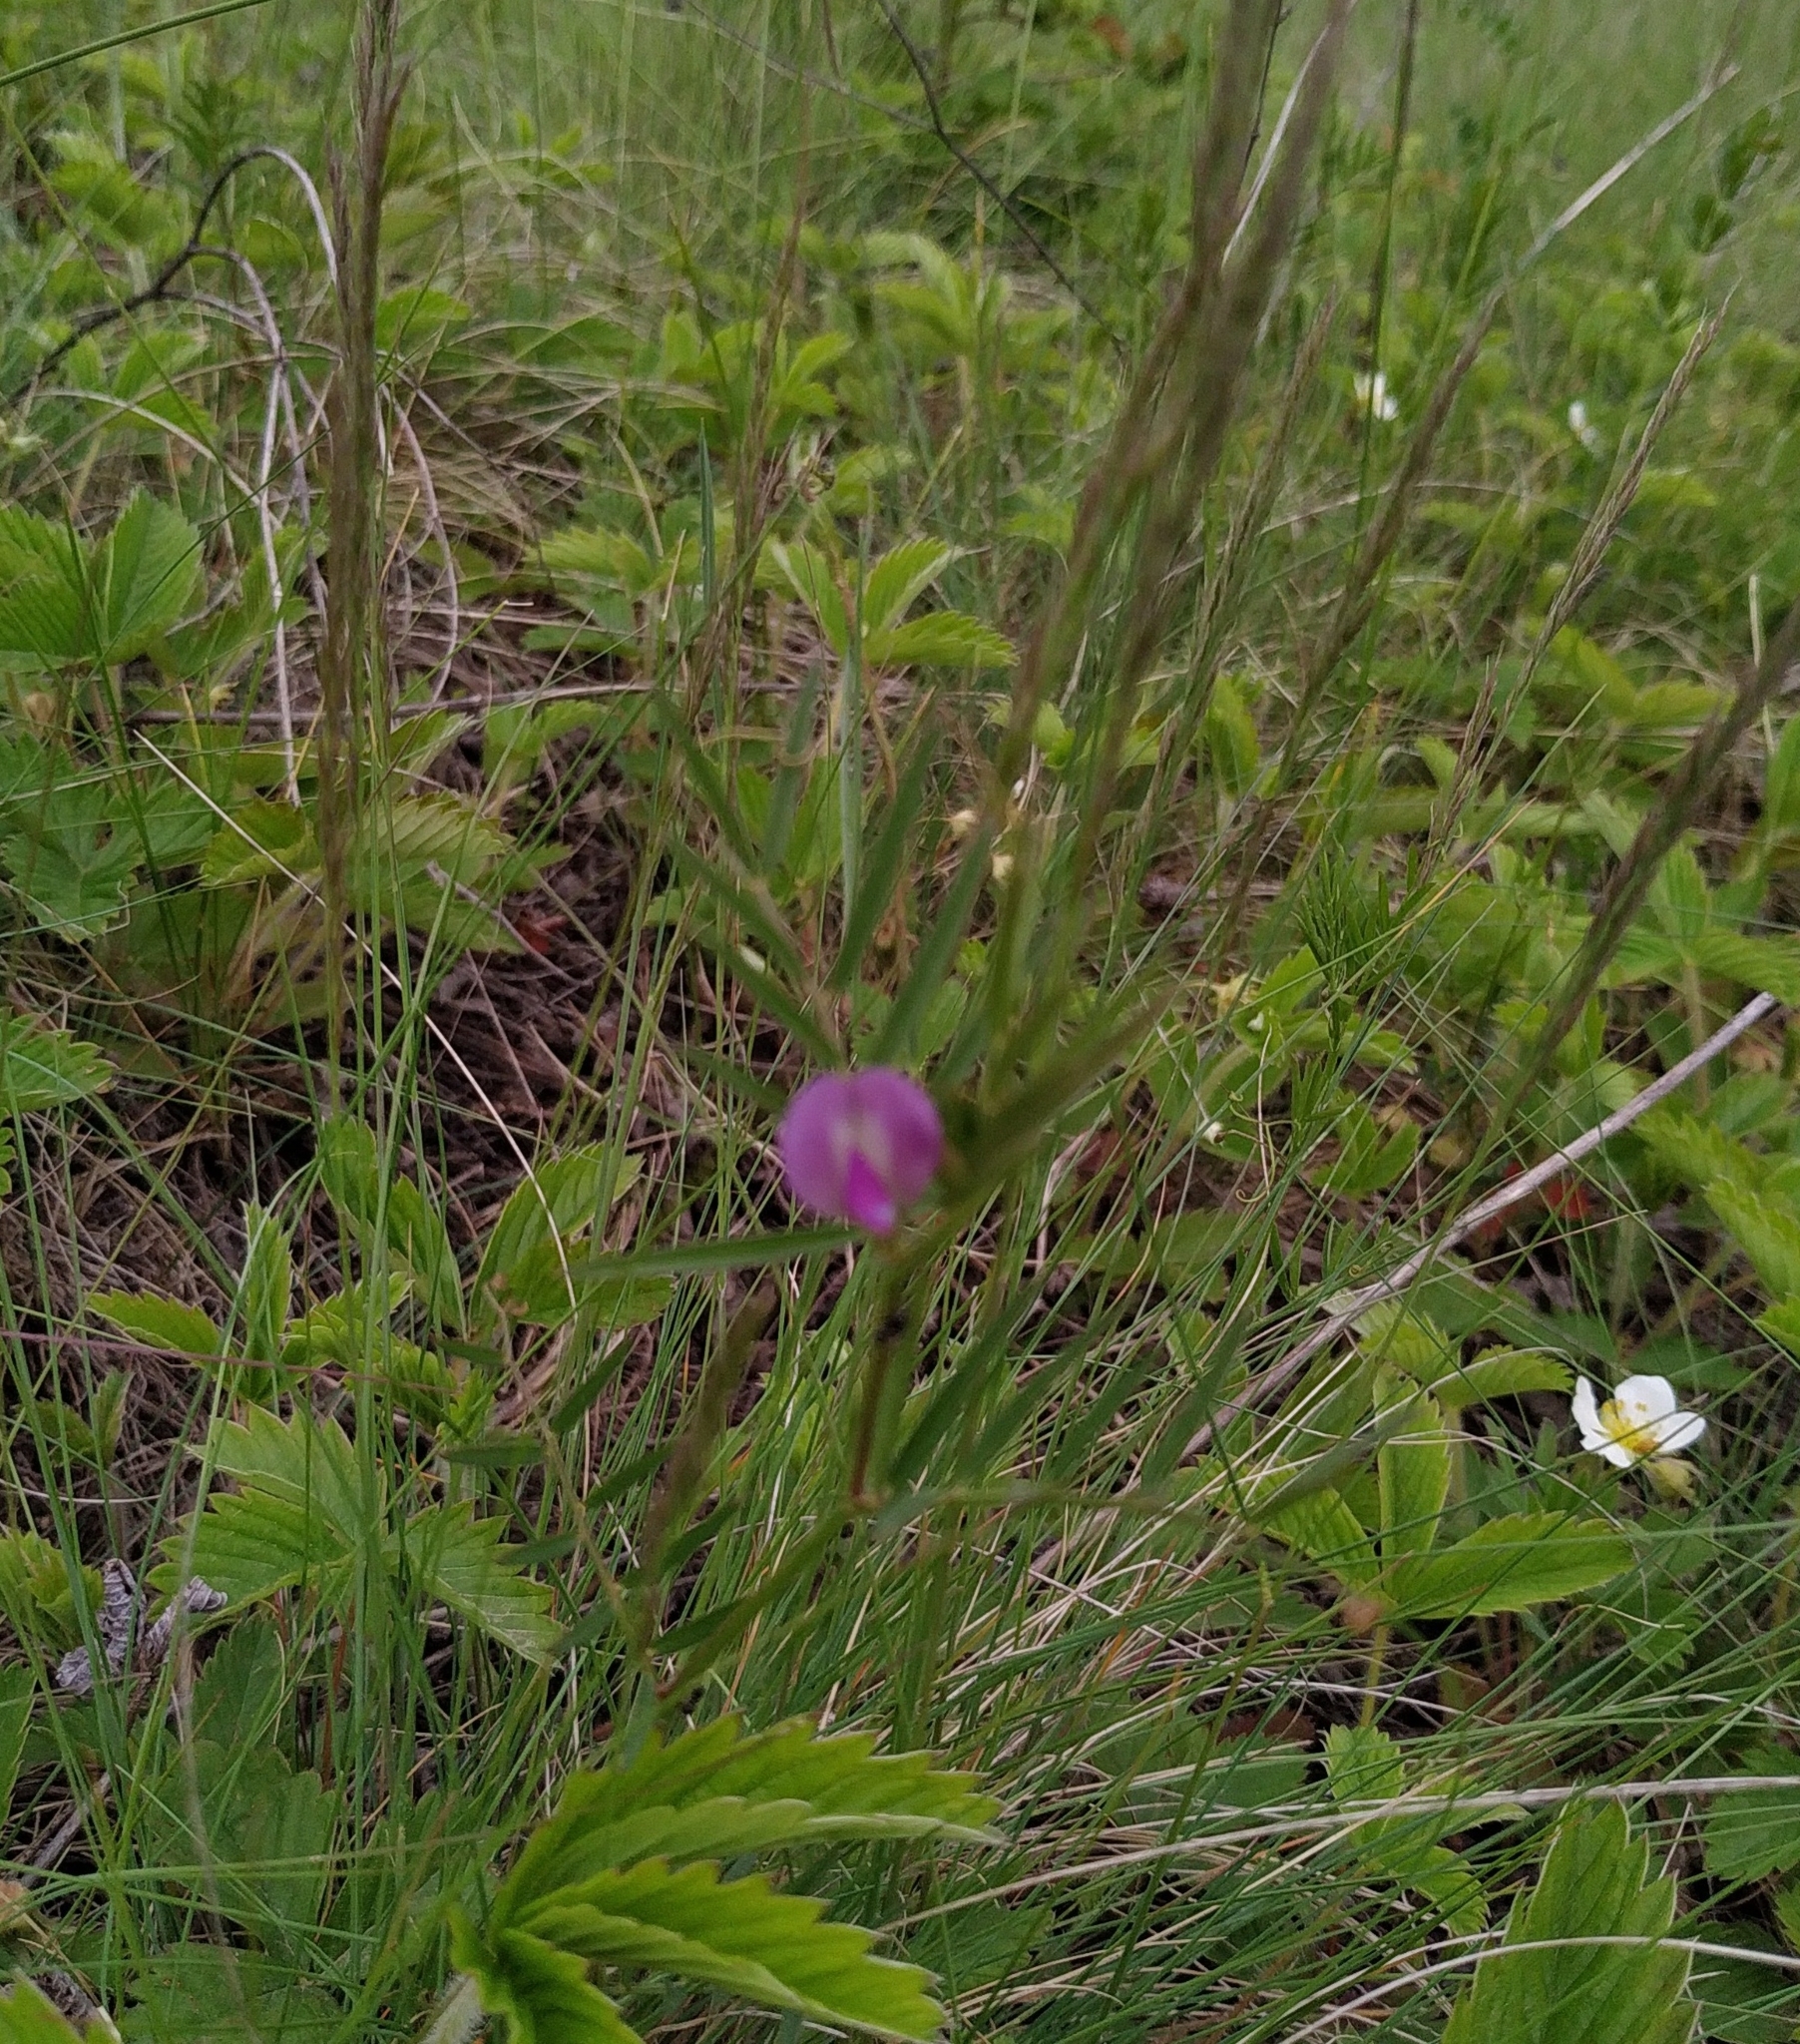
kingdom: Plantae
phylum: Tracheophyta
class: Magnoliopsida
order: Fabales
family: Fabaceae
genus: Vicia
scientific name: Vicia sativa
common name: Garden vetch
